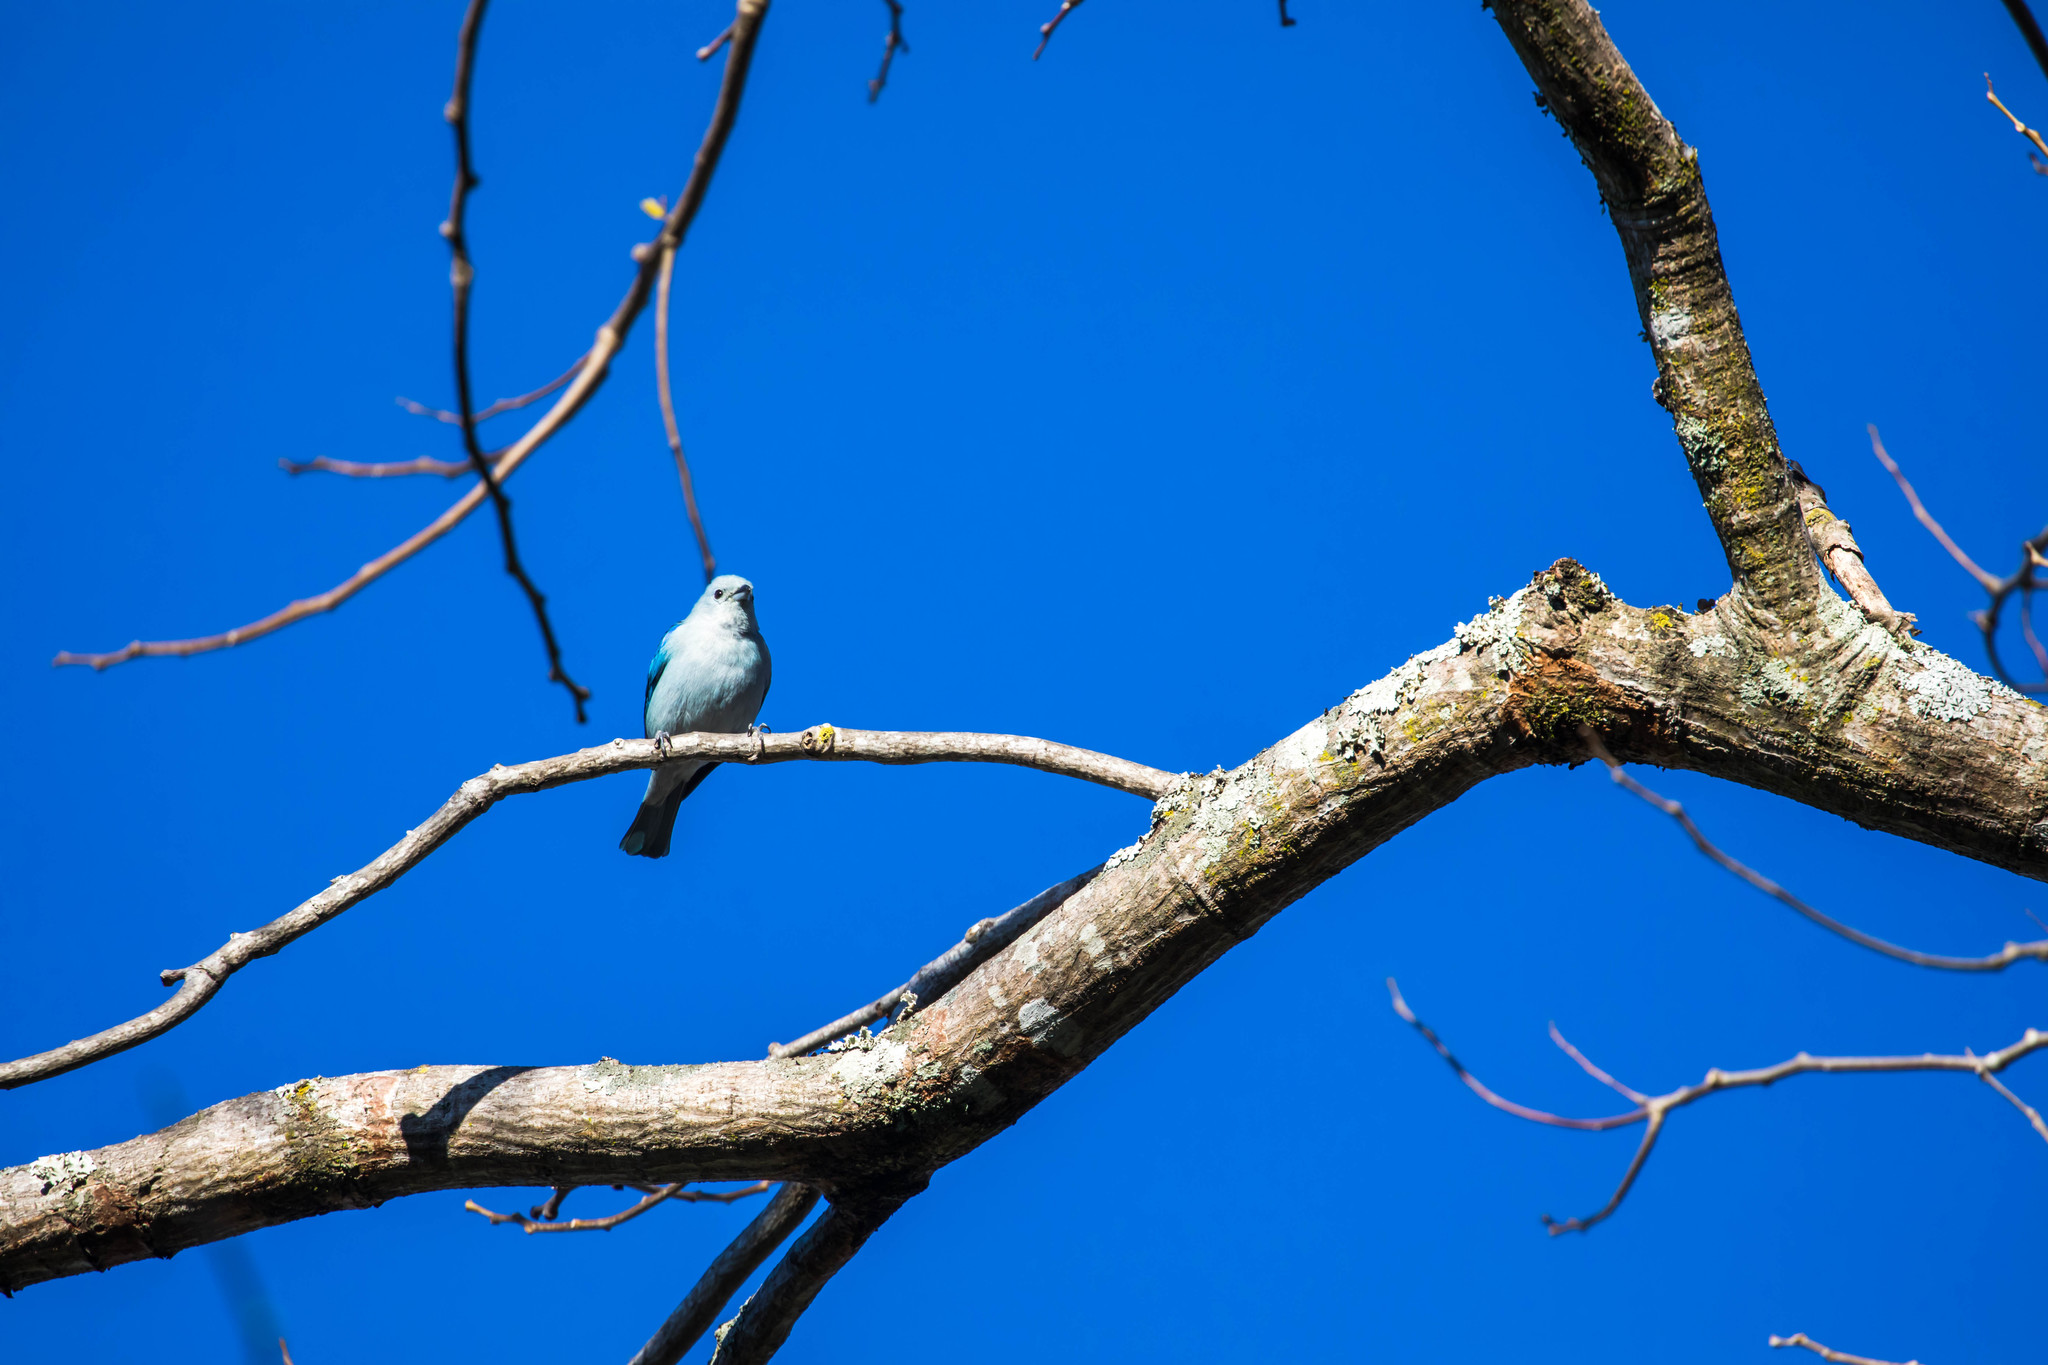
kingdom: Animalia
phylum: Chordata
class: Aves
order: Passeriformes
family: Thraupidae
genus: Thraupis
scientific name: Thraupis episcopus
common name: Blue-grey tanager
